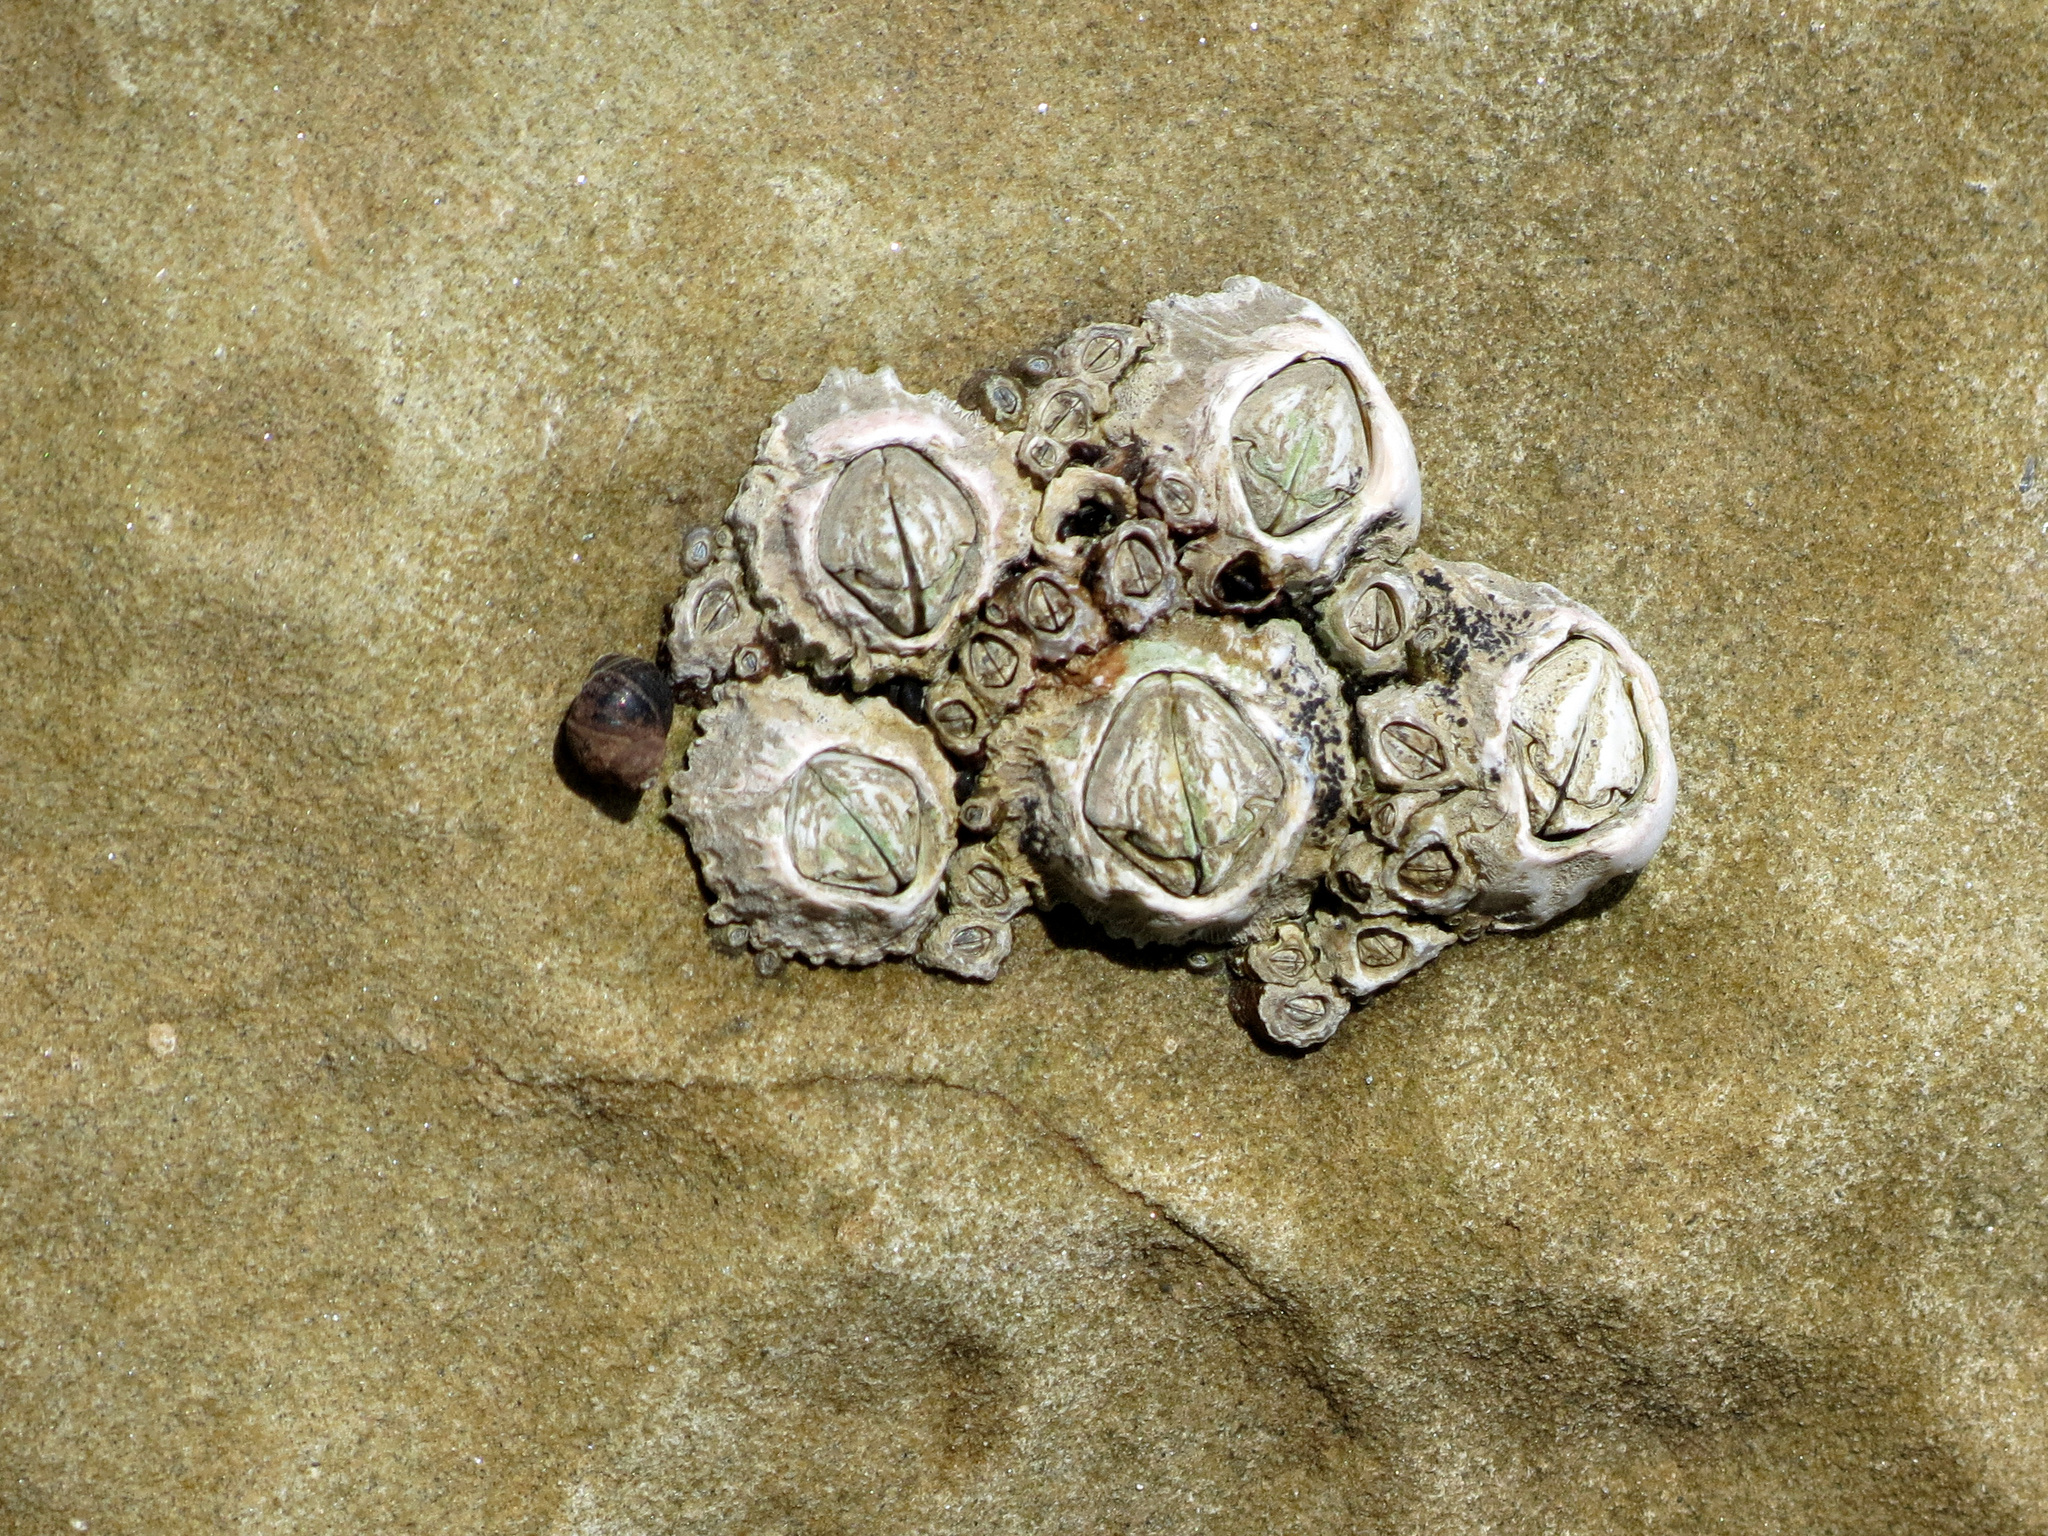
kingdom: Animalia
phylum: Arthropoda
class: Maxillopoda
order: Sessilia
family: Tetraclitidae
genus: Epopella
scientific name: Epopella plicata
